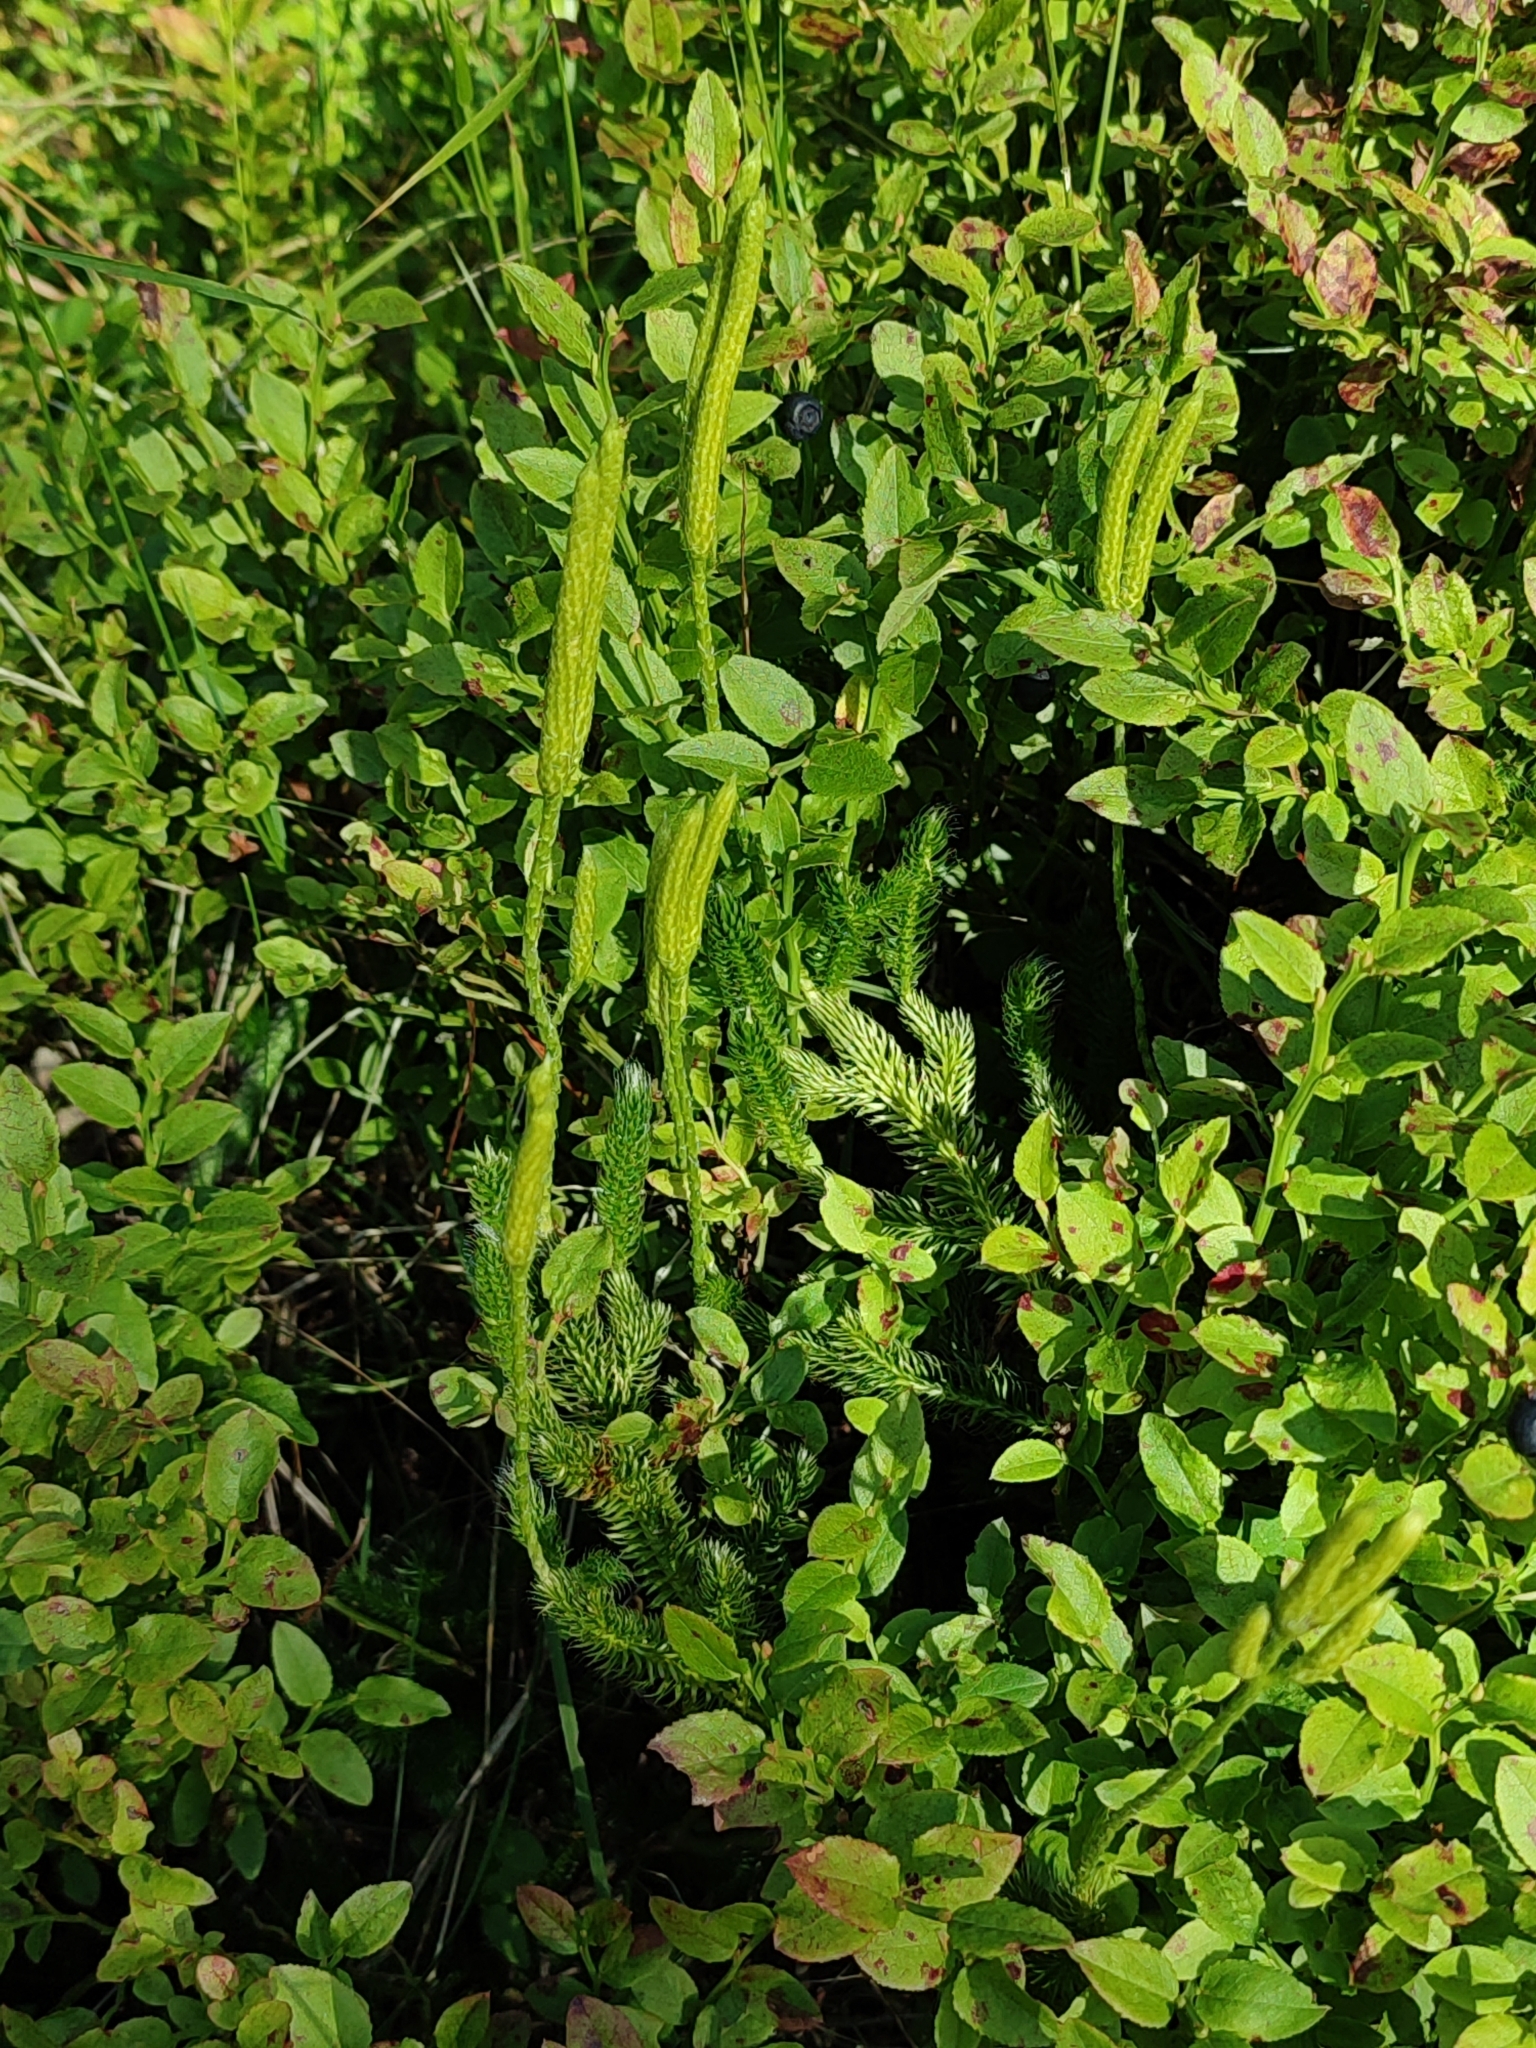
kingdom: Plantae
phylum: Tracheophyta
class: Magnoliopsida
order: Ericales
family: Ericaceae
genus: Vaccinium
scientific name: Vaccinium myrtillus
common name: Bilberry
